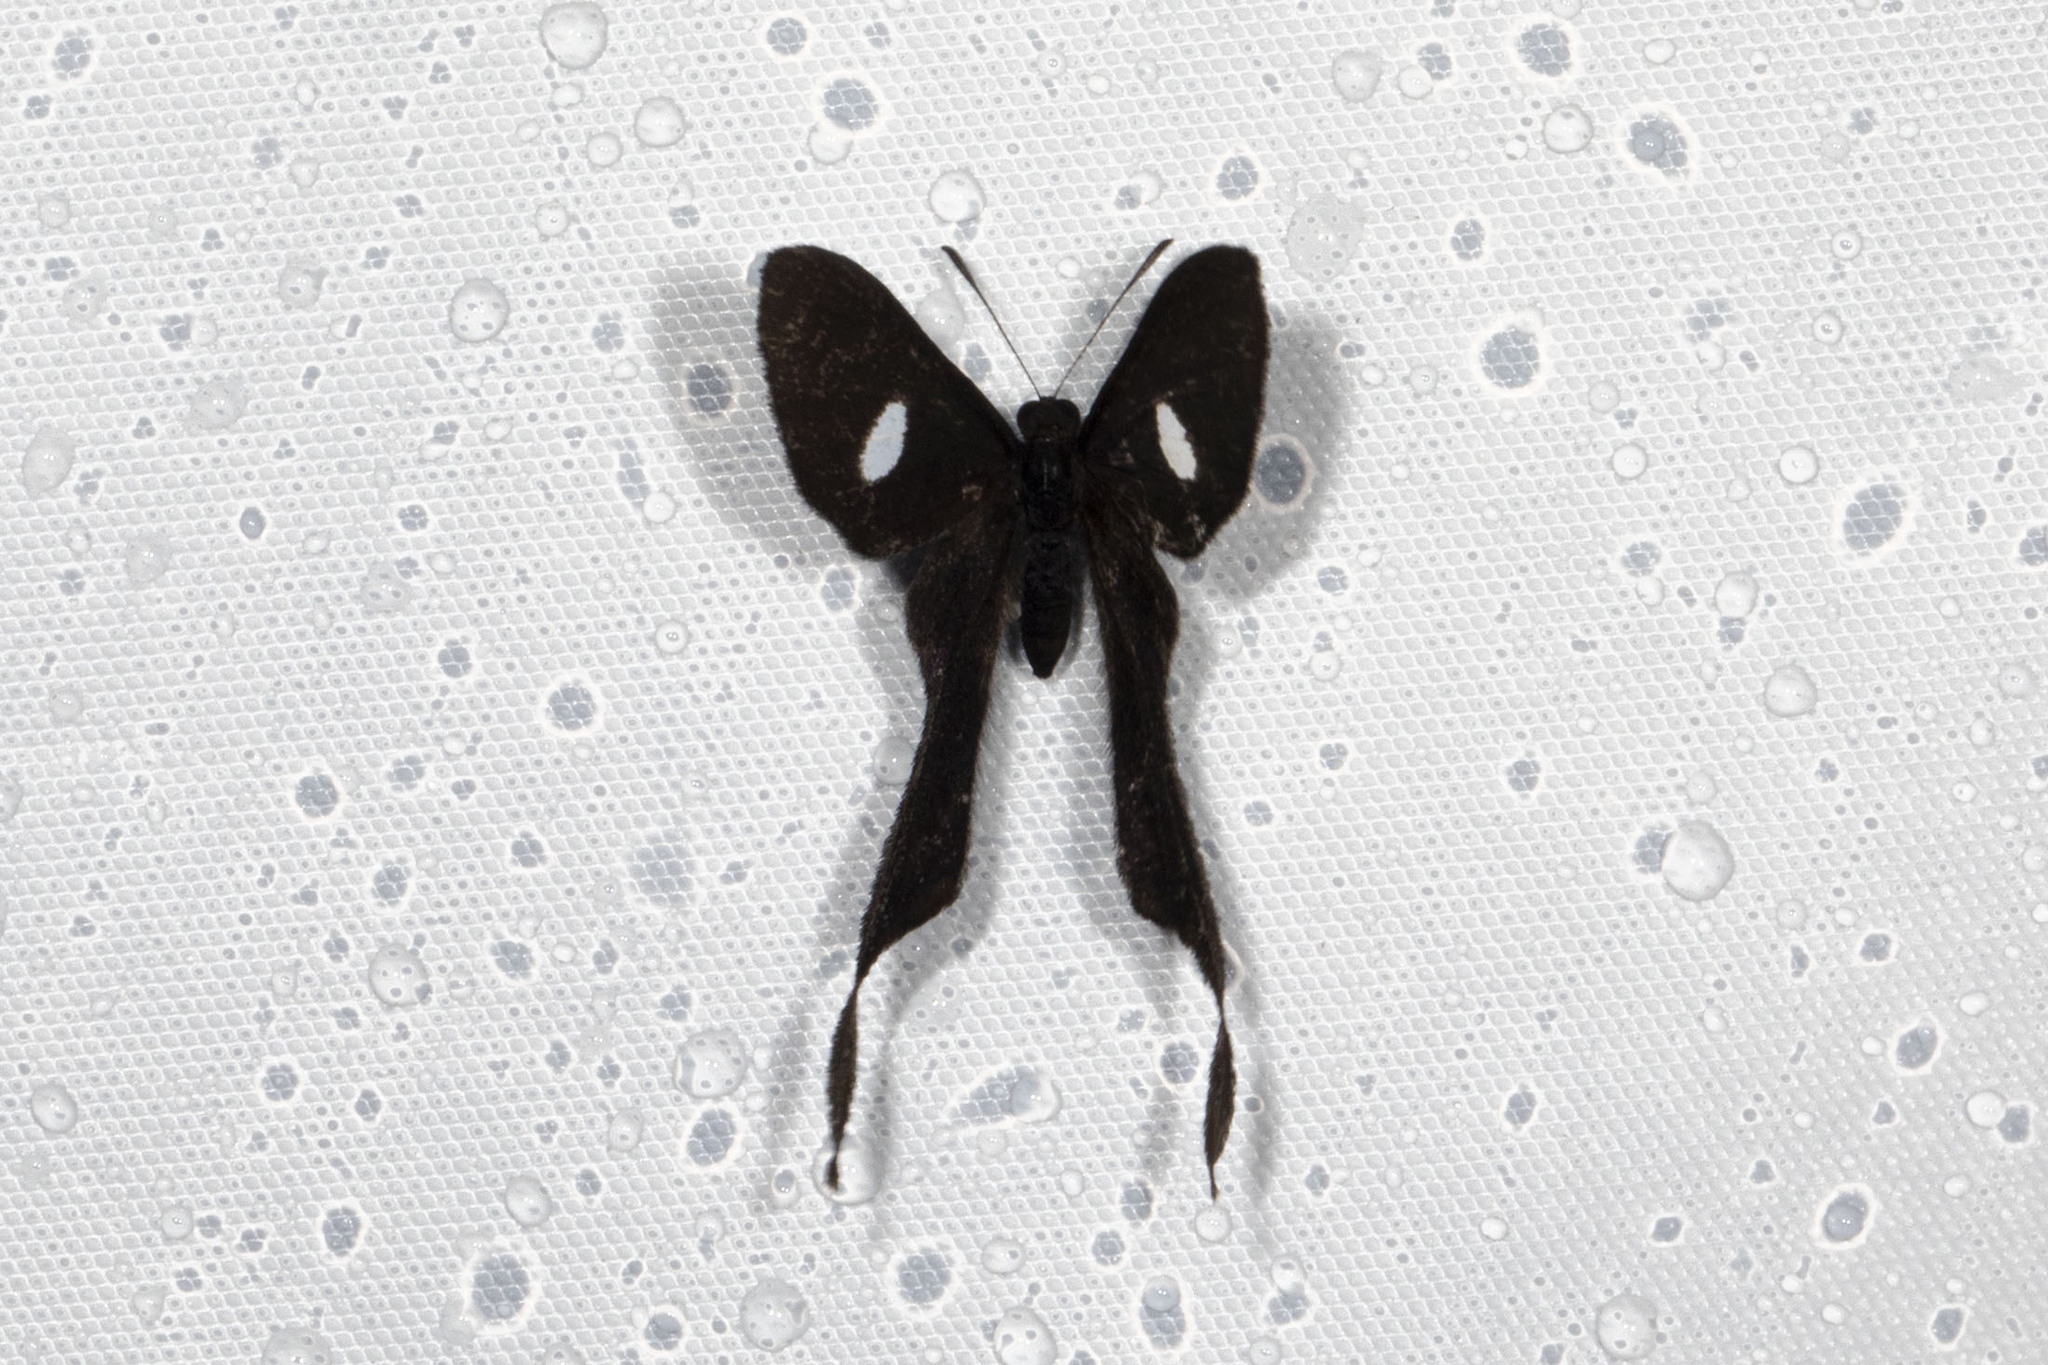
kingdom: Animalia
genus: Syrmatia
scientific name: Syrmatia nyx
